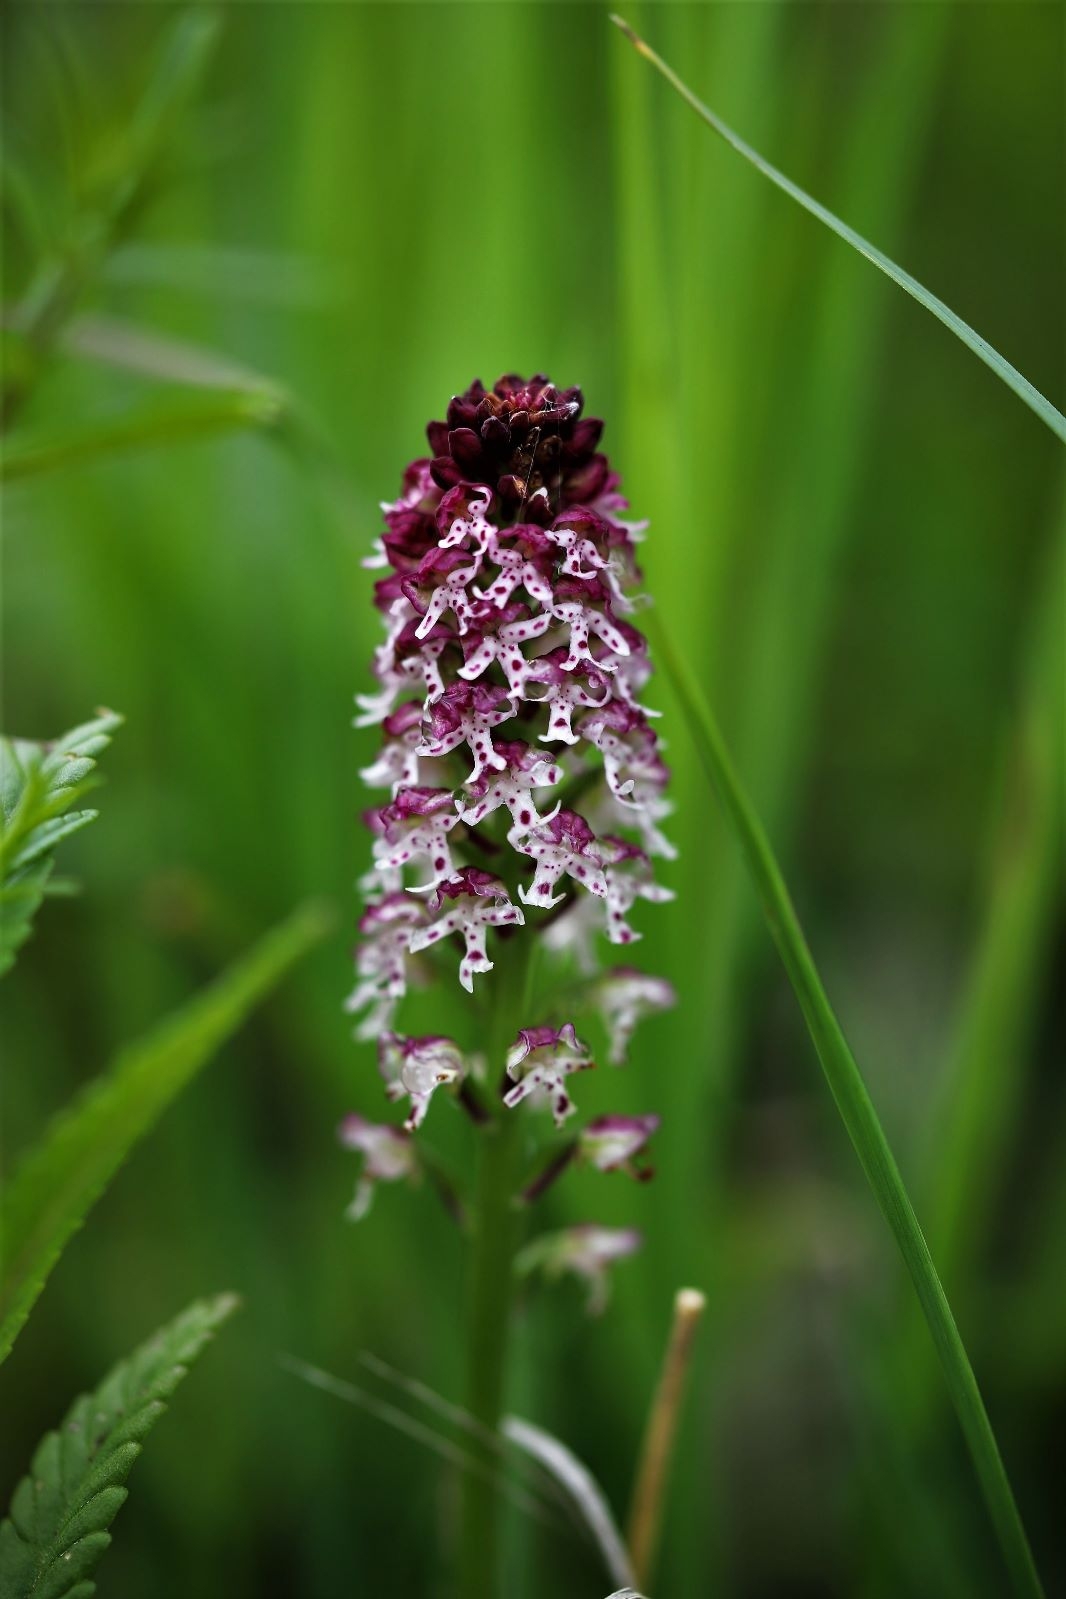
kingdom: Plantae
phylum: Tracheophyta
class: Liliopsida
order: Asparagales
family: Orchidaceae
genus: Neotinea
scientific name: Neotinea ustulata
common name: Burnt orchid
